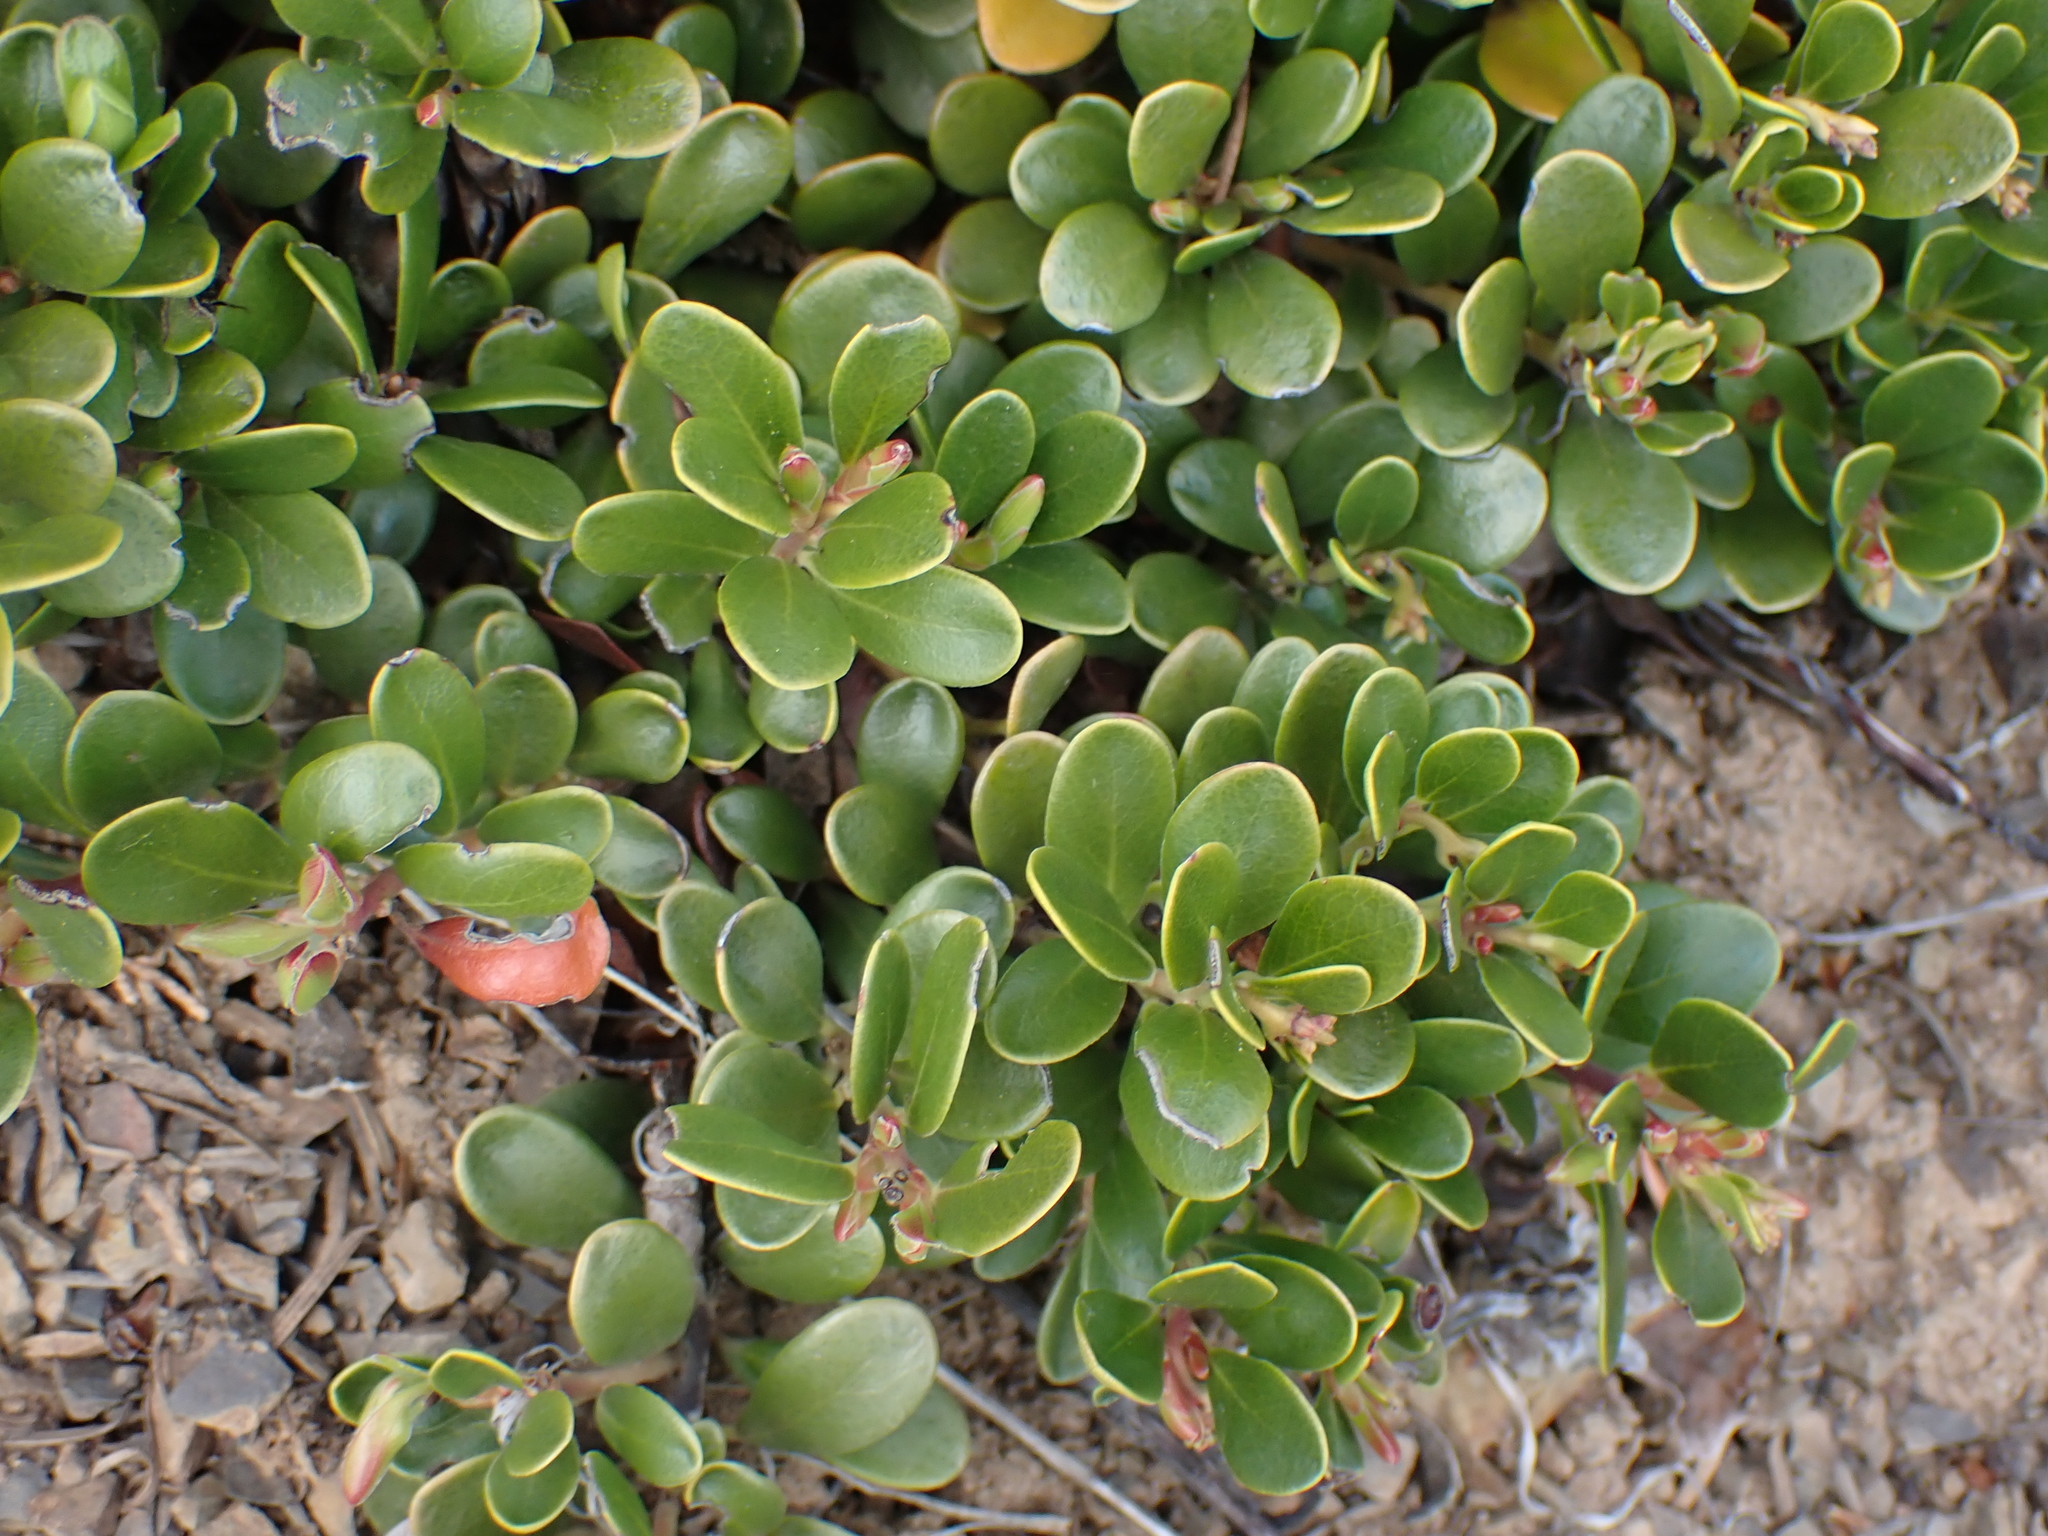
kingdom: Plantae
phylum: Tracheophyta
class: Magnoliopsida
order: Ericales
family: Ericaceae
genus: Arctostaphylos
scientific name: Arctostaphylos uva-ursi
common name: Bearberry
